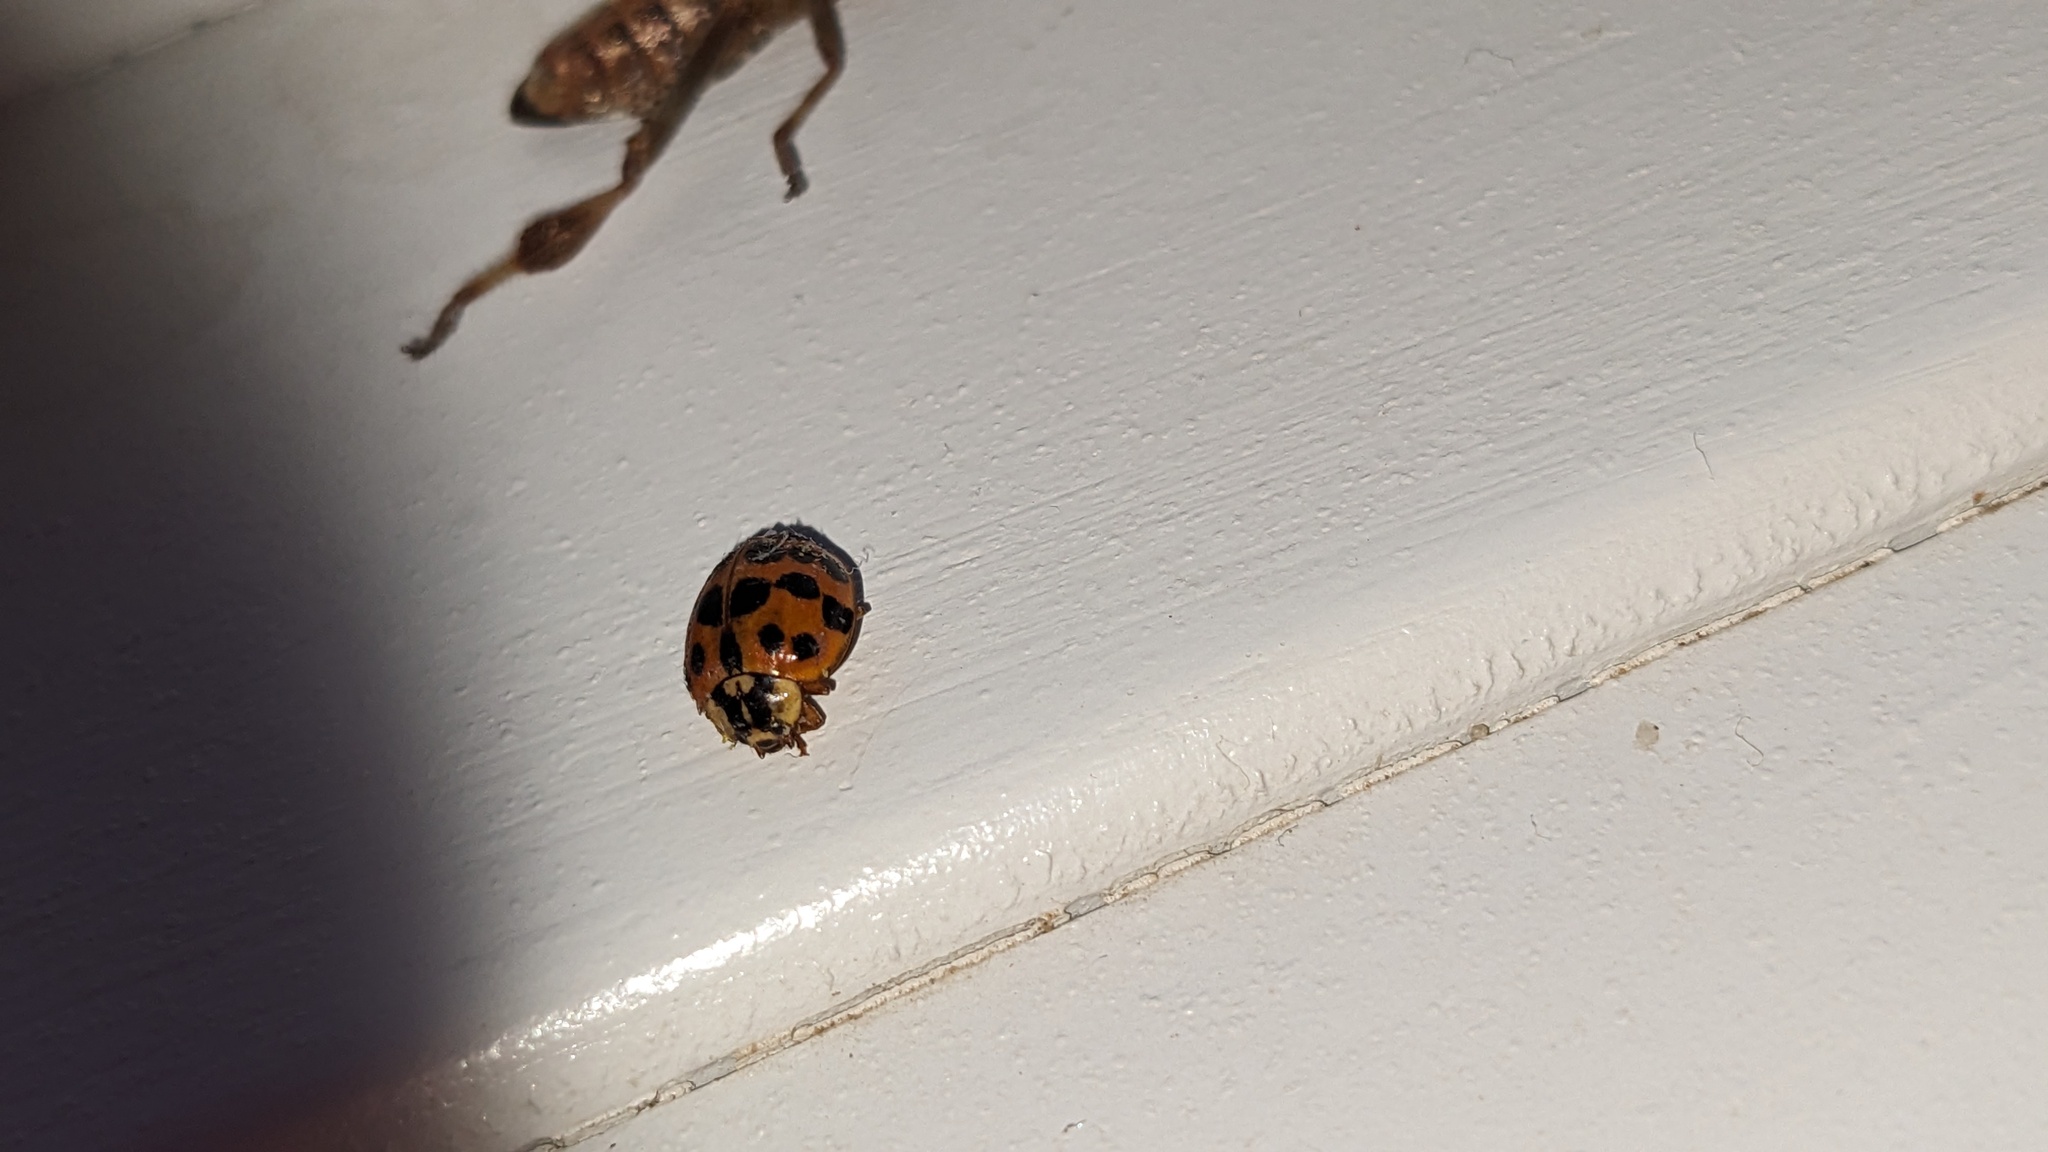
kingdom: Animalia
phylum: Arthropoda
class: Insecta
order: Coleoptera
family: Coccinellidae
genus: Harmonia
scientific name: Harmonia axyridis
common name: Harlequin ladybird
